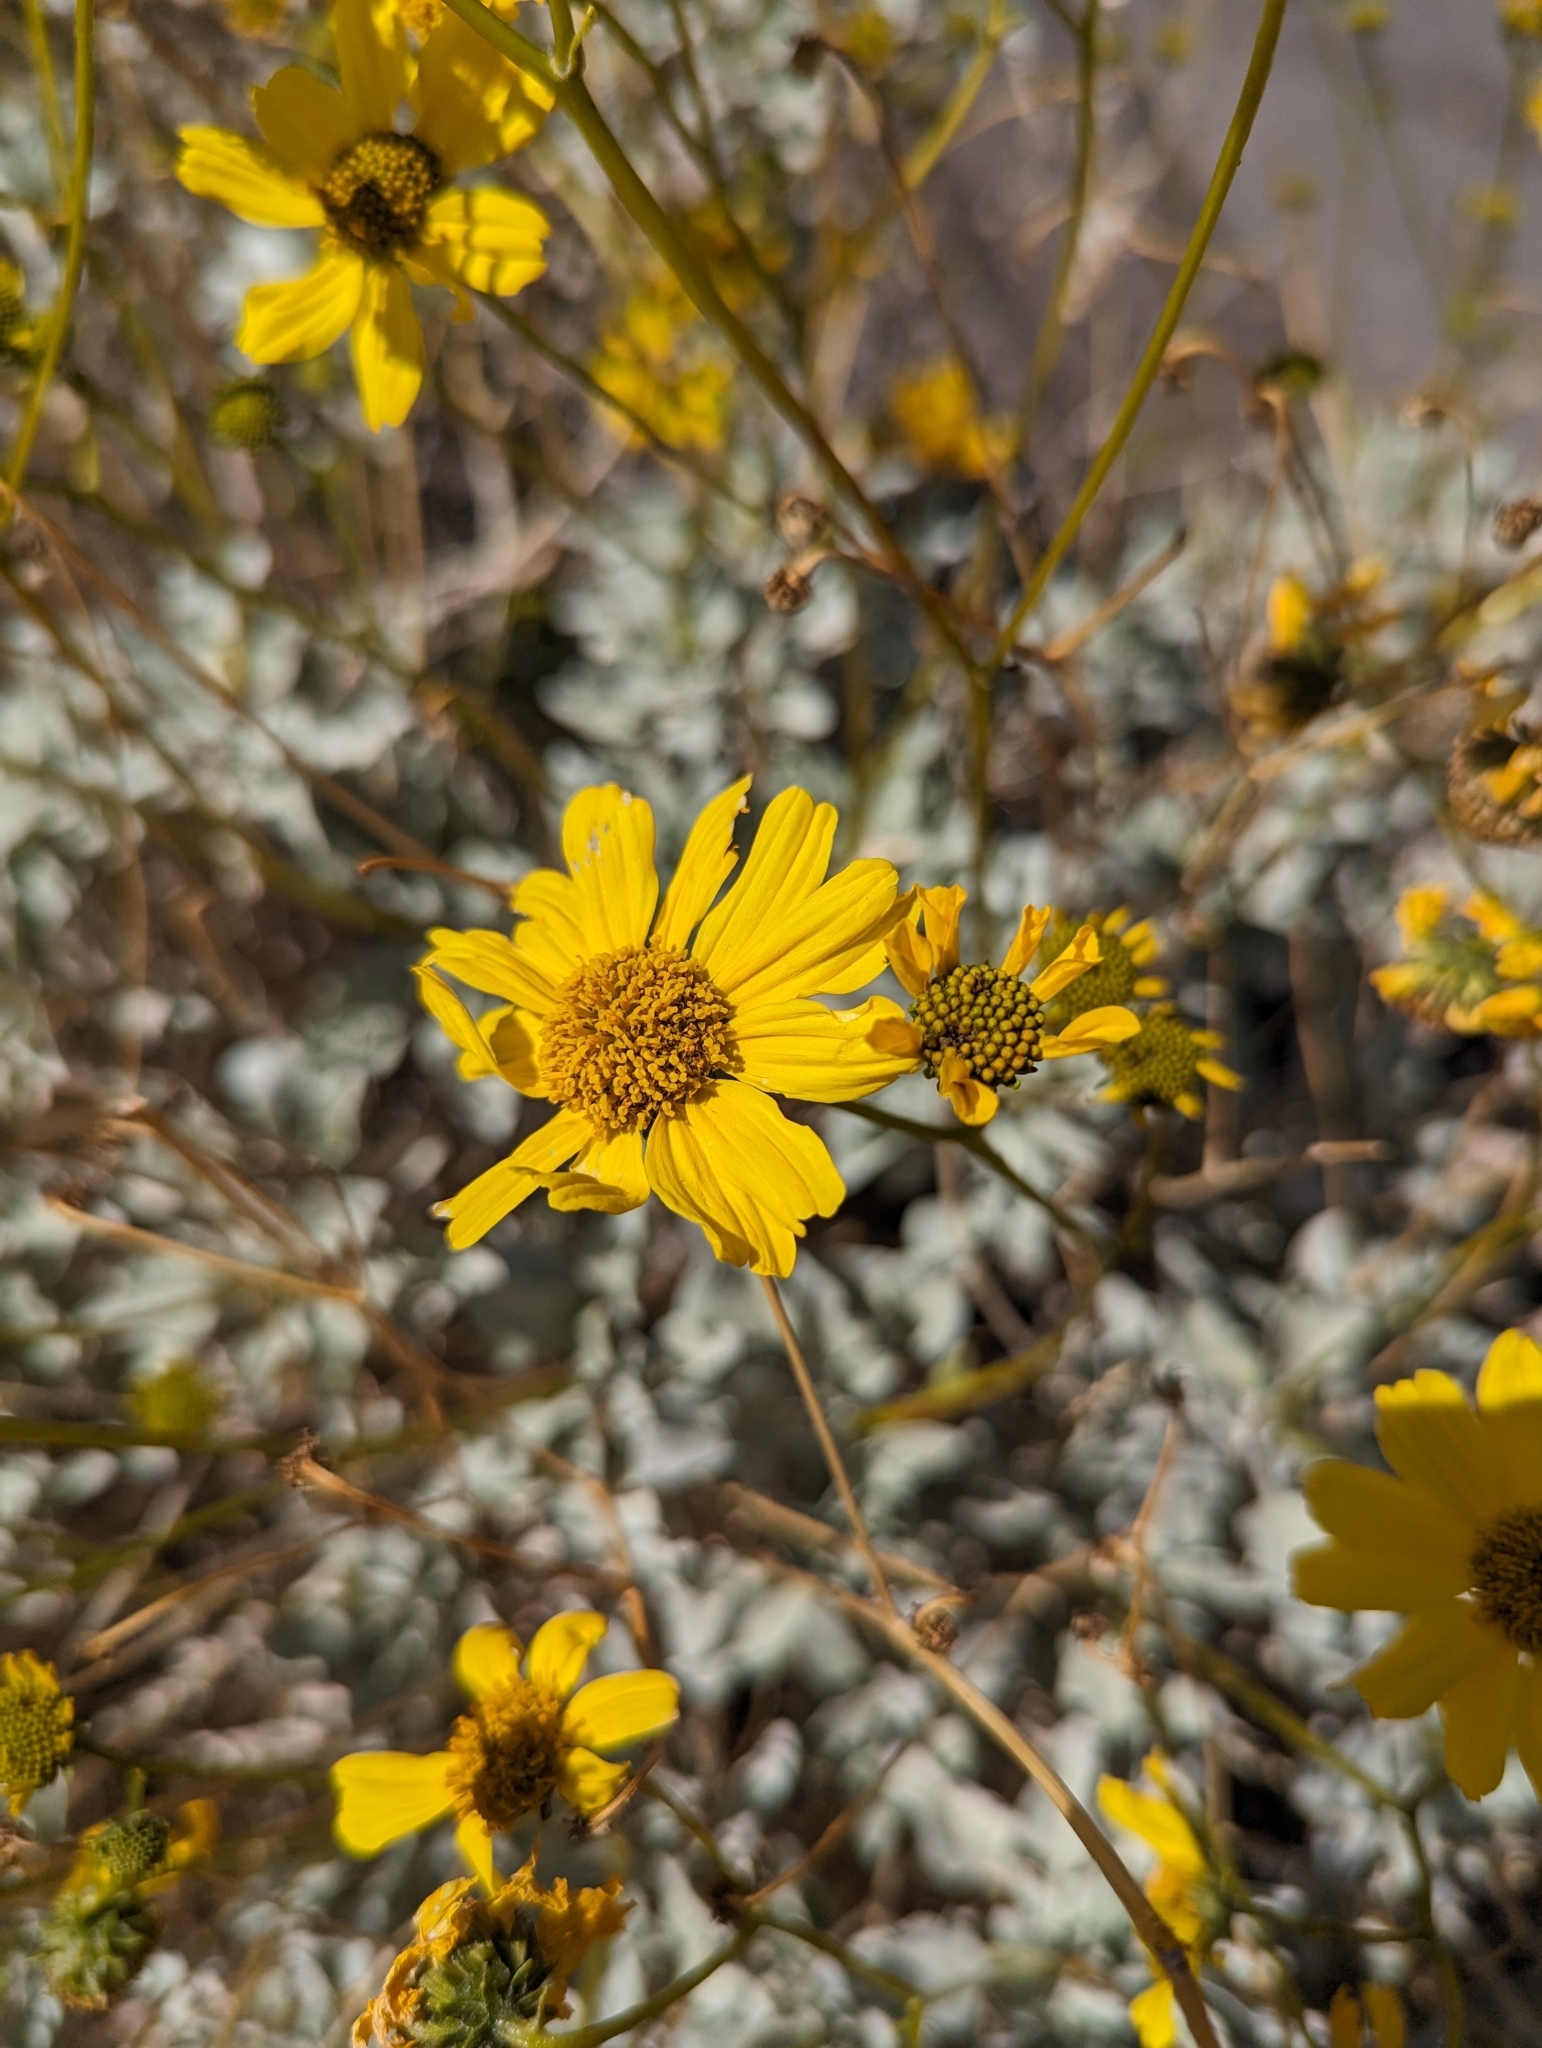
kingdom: Plantae
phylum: Tracheophyta
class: Magnoliopsida
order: Asterales
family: Asteraceae
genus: Encelia
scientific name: Encelia farinosa
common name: Brittlebush
